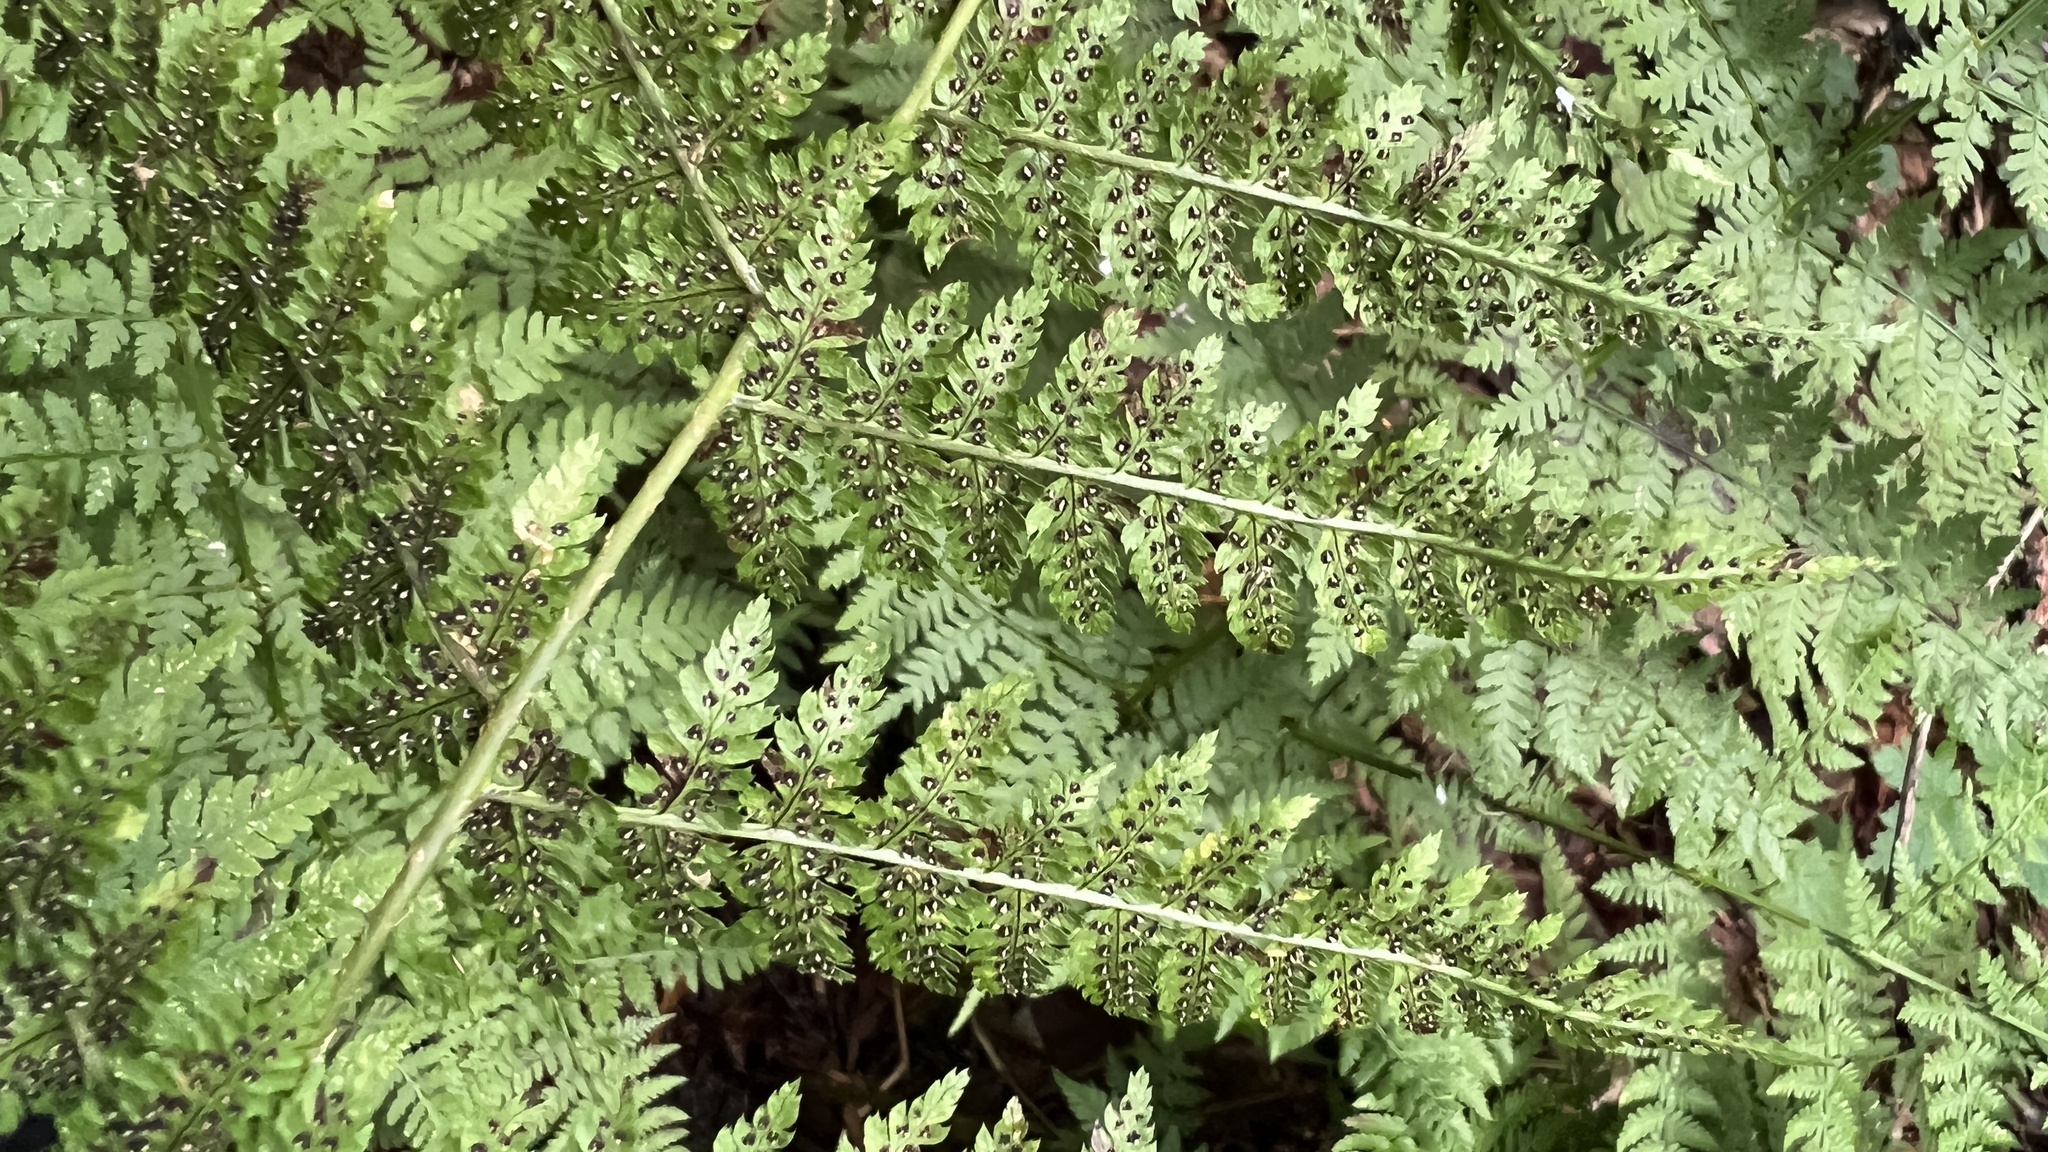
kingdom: Plantae
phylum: Tracheophyta
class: Polypodiopsida
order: Polypodiales
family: Dryopteridaceae
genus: Dryopteris
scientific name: Dryopteris campyloptera
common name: Mountain wood fern
